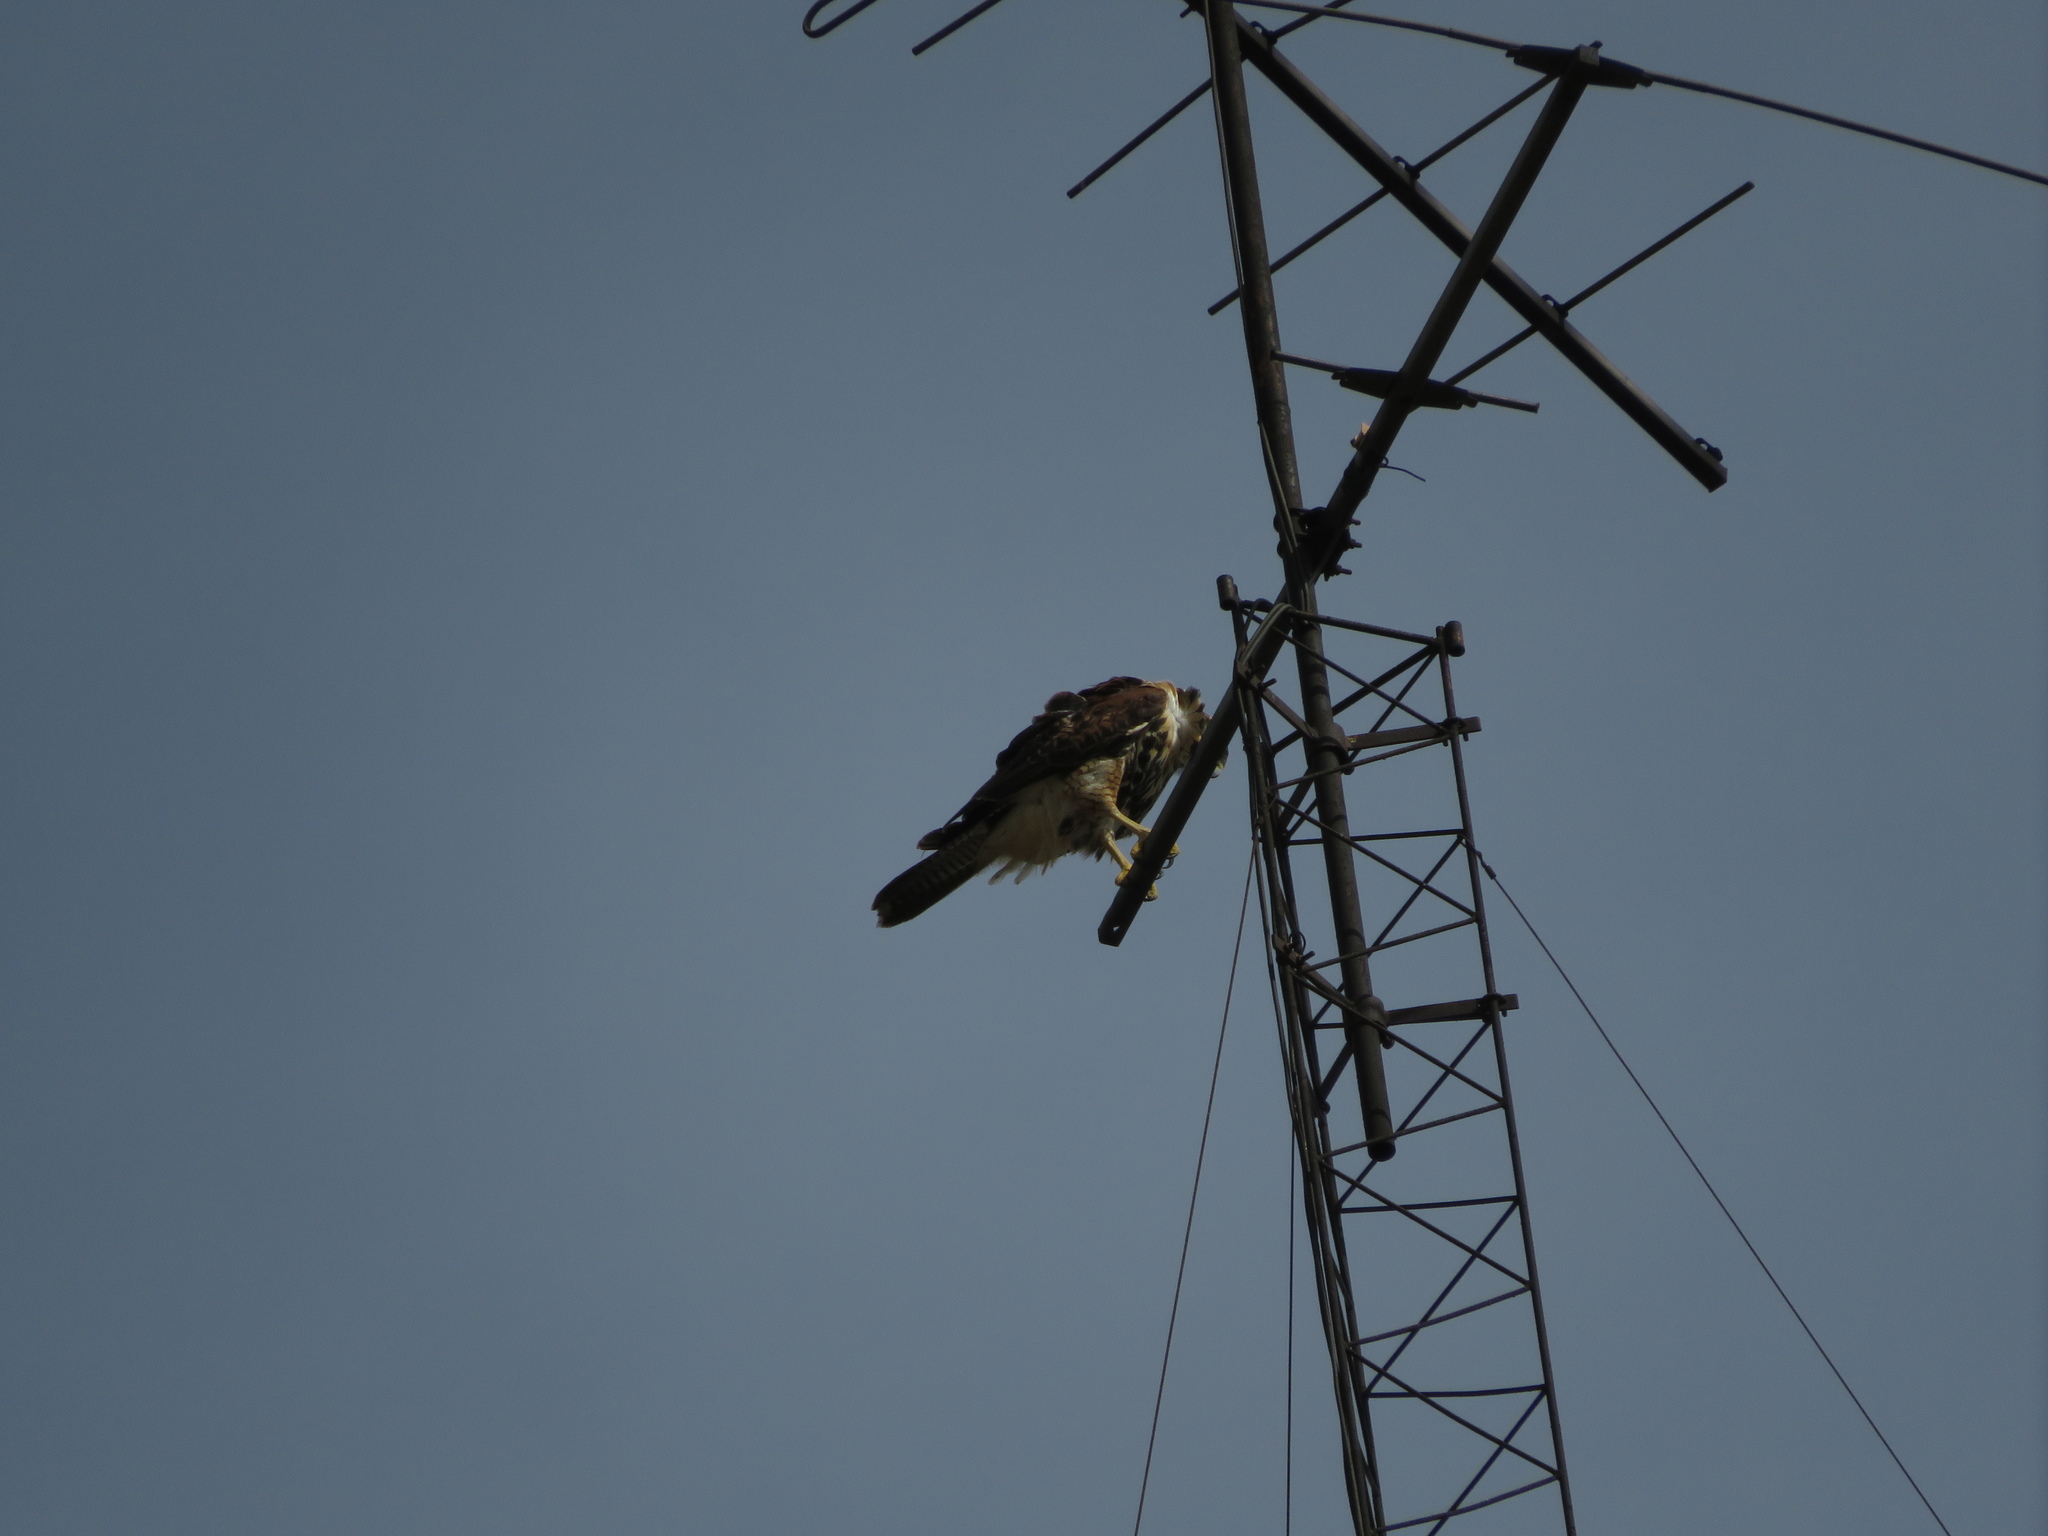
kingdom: Animalia
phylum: Chordata
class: Aves
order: Falconiformes
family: Falconidae
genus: Caracara
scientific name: Caracara plancus
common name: Southern caracara
